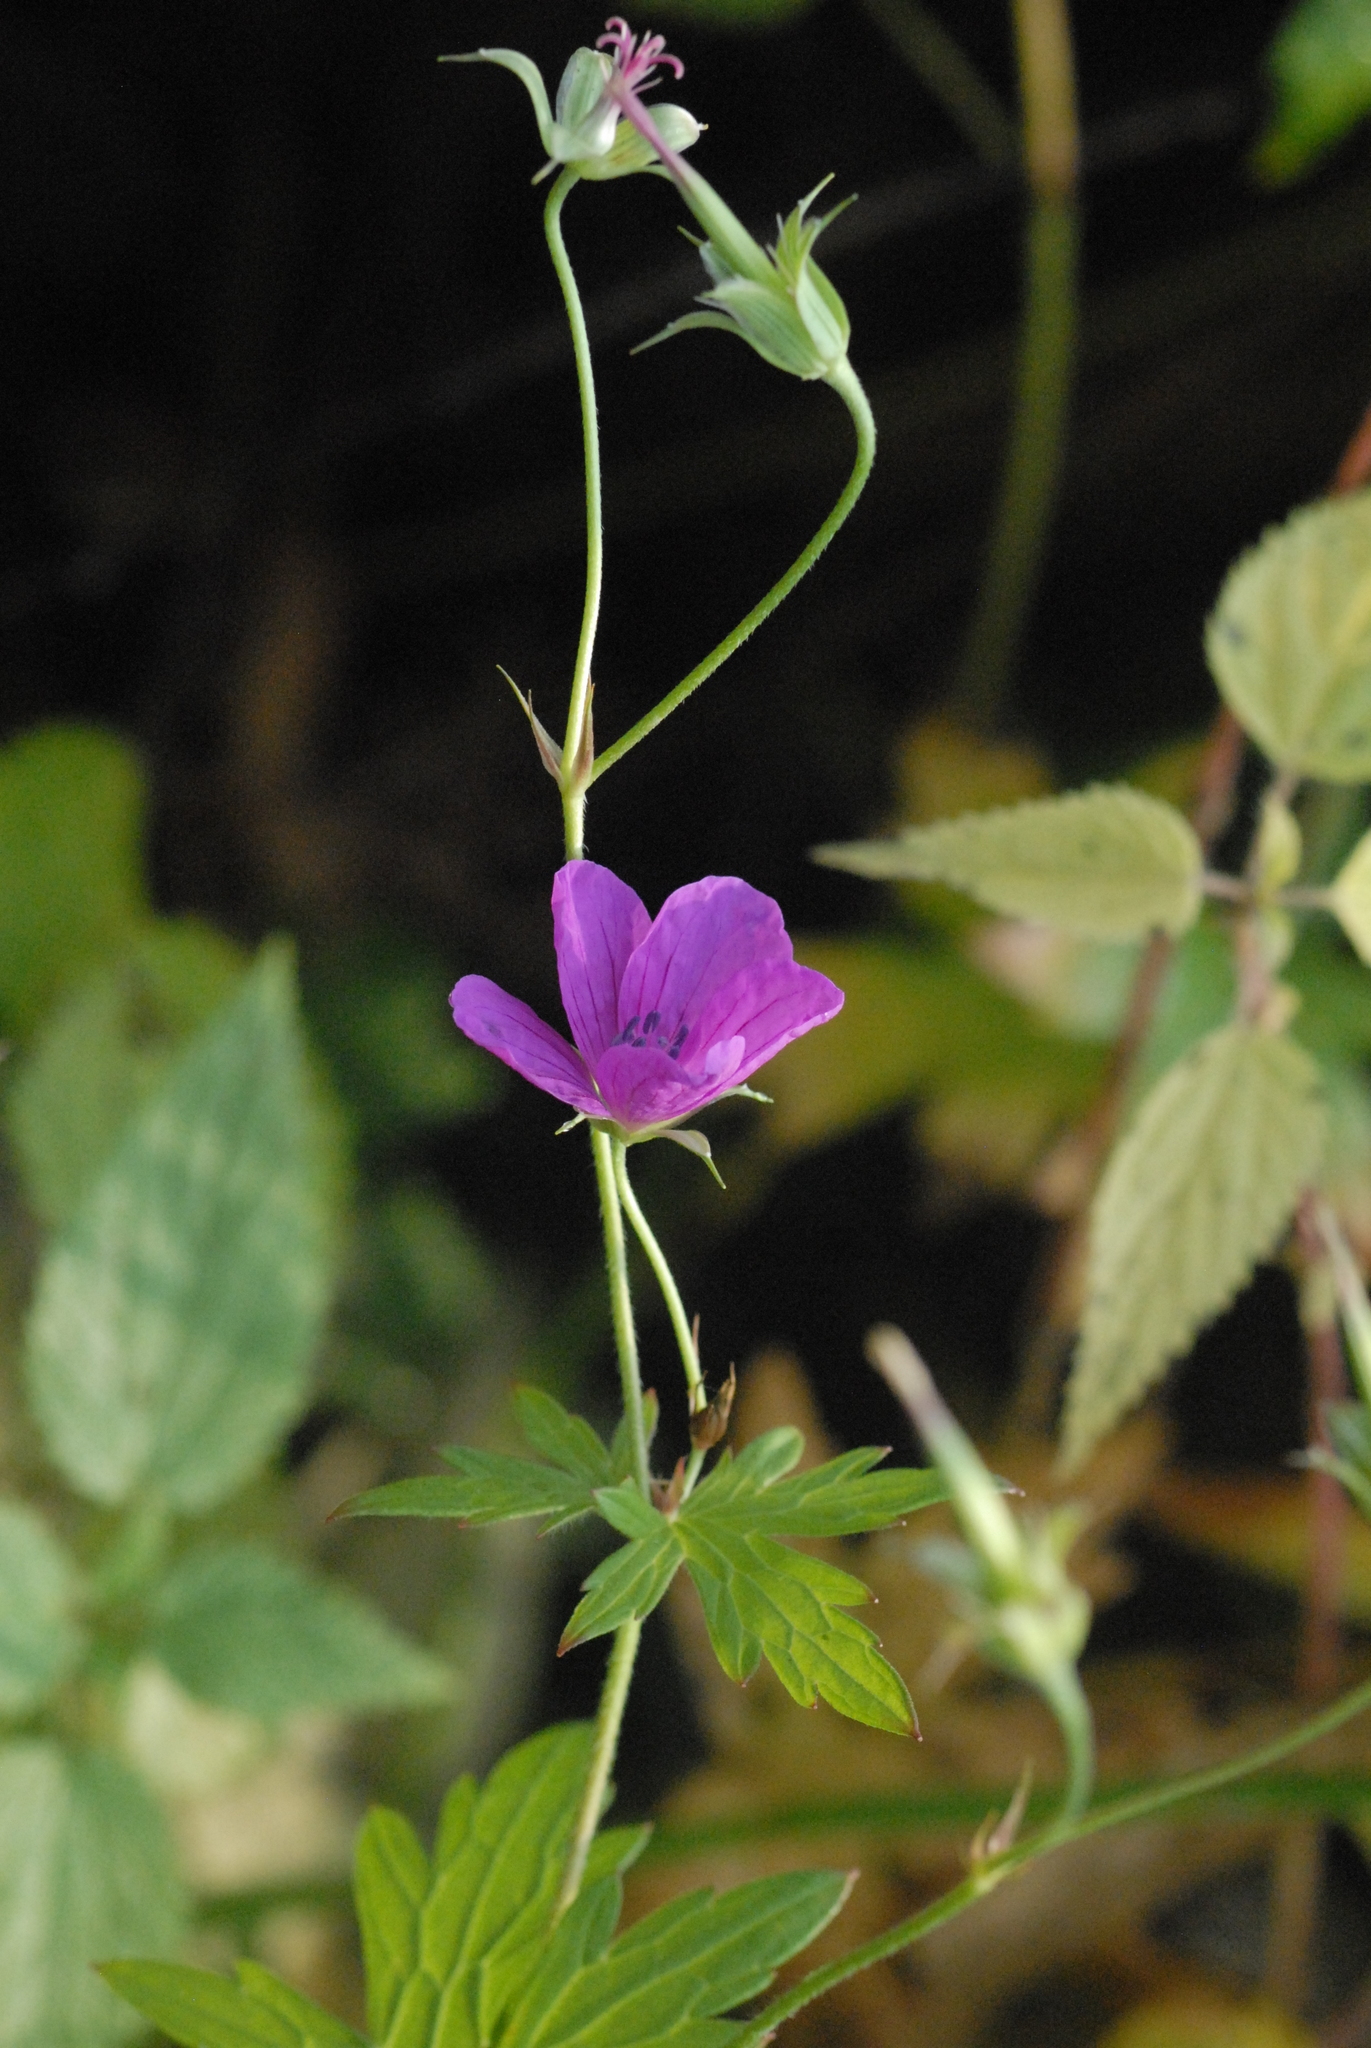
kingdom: Plantae
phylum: Tracheophyta
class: Magnoliopsida
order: Geraniales
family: Geraniaceae
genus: Geranium
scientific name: Geranium palustre
